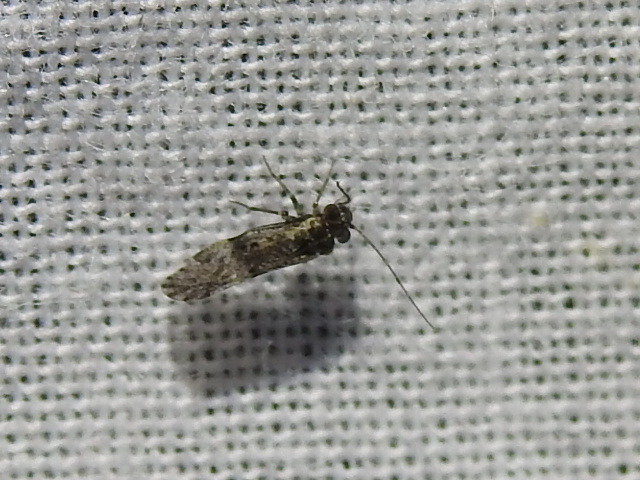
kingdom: Animalia
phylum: Arthropoda
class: Insecta
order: Psocodea
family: Psocidae
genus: Loensia
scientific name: Loensia moesta
